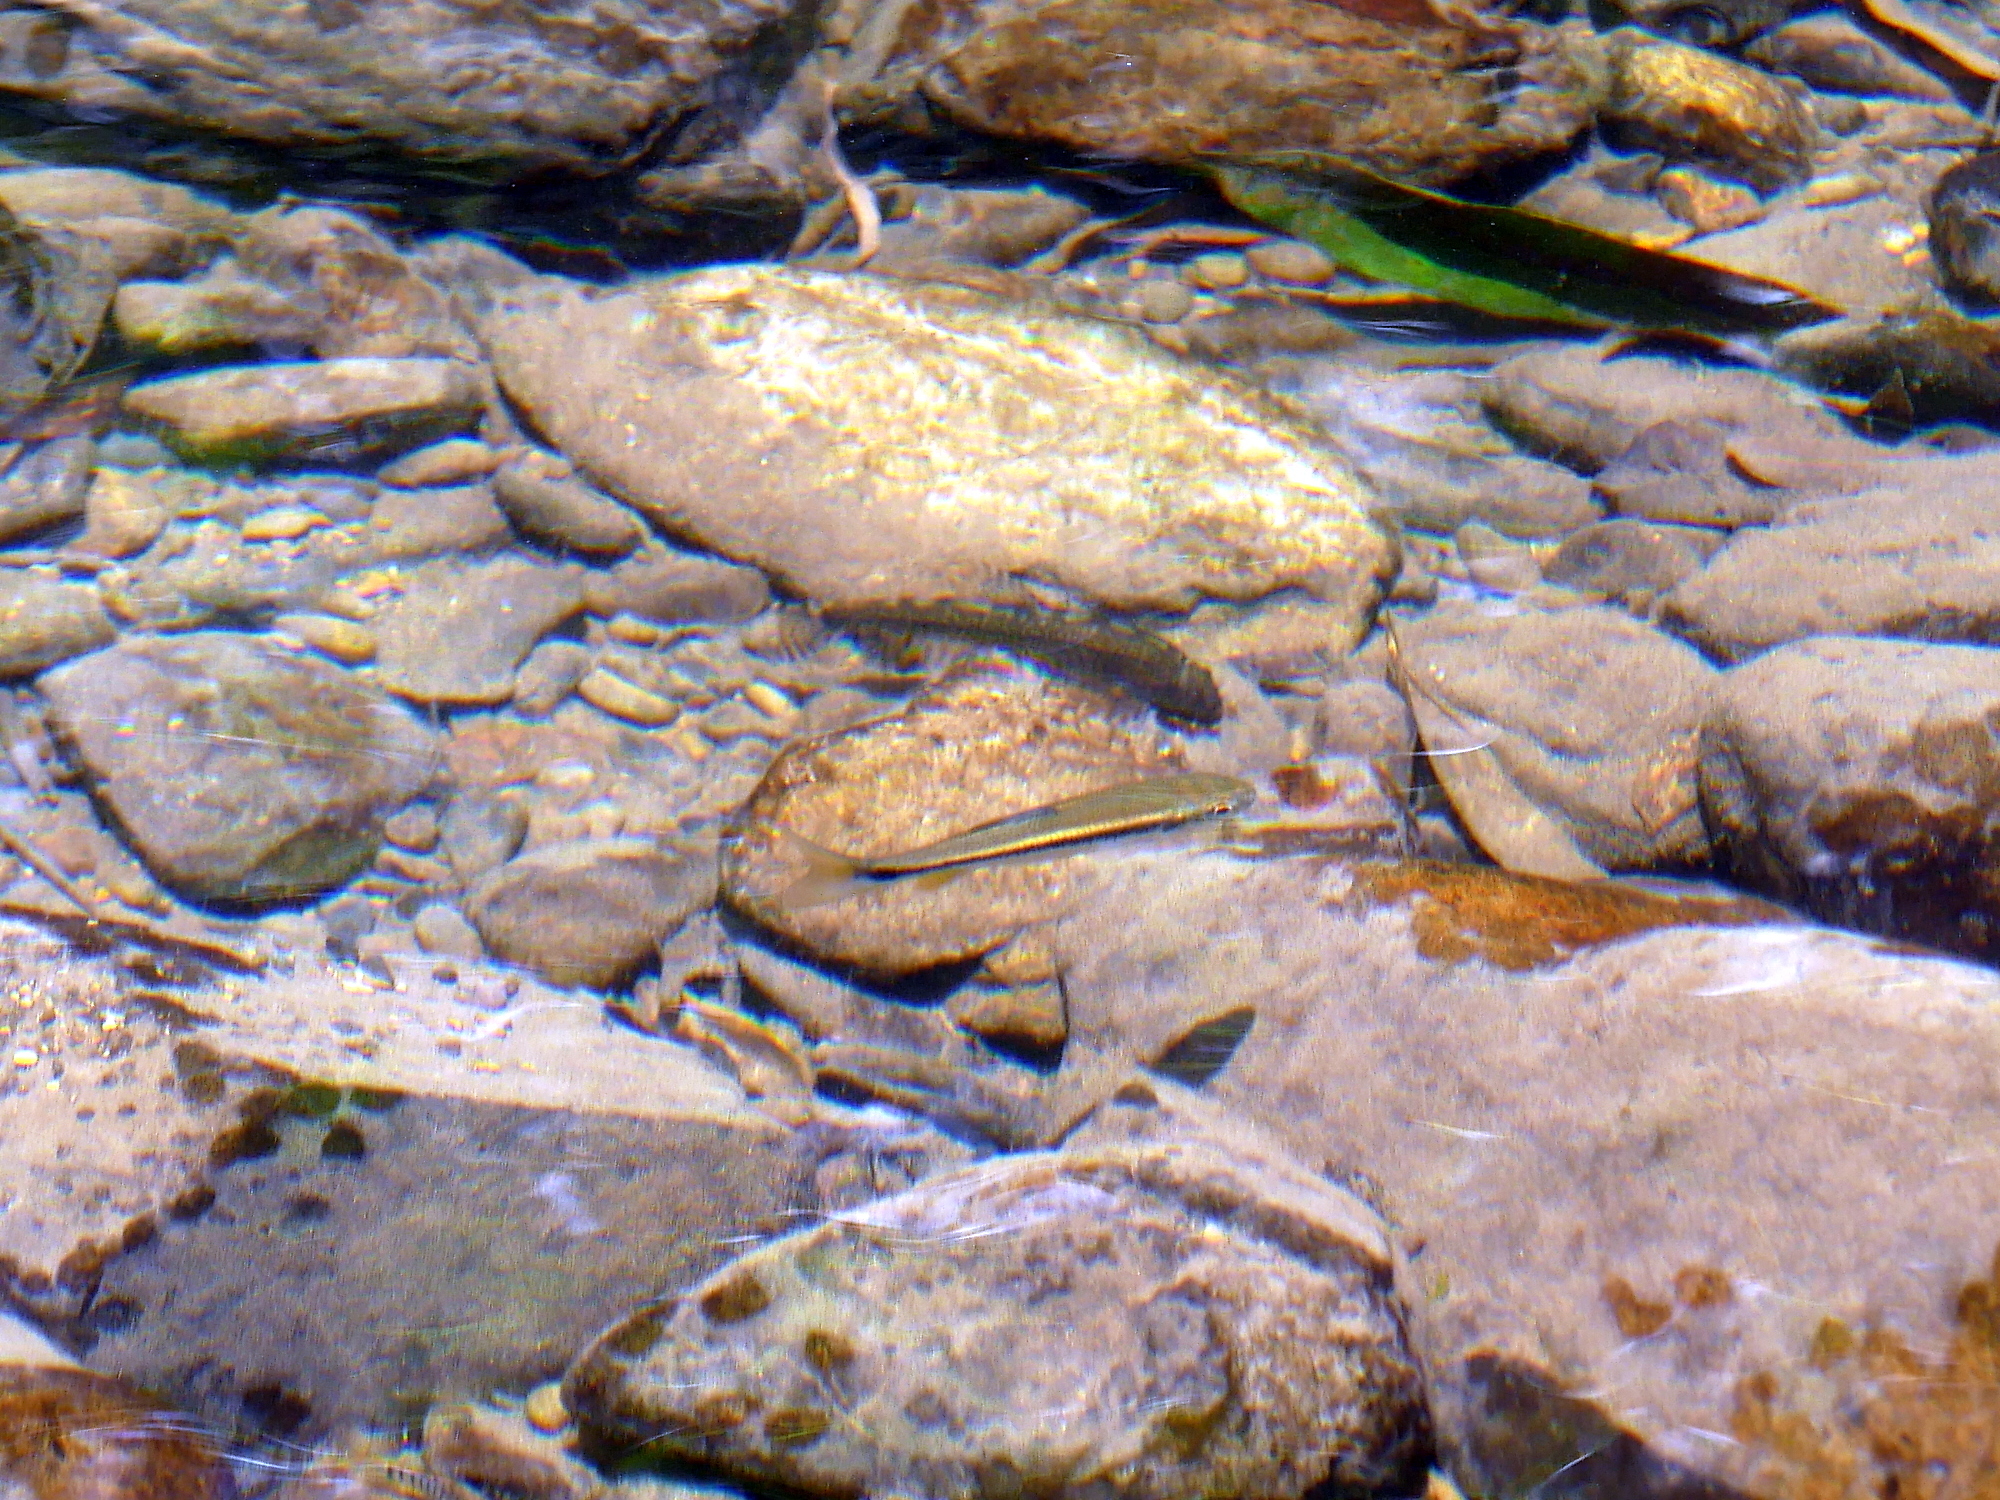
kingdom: Animalia
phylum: Chordata
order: Cypriniformes
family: Cyprinidae
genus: Candidia
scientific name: Candidia barbata
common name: Lake candidus dace
